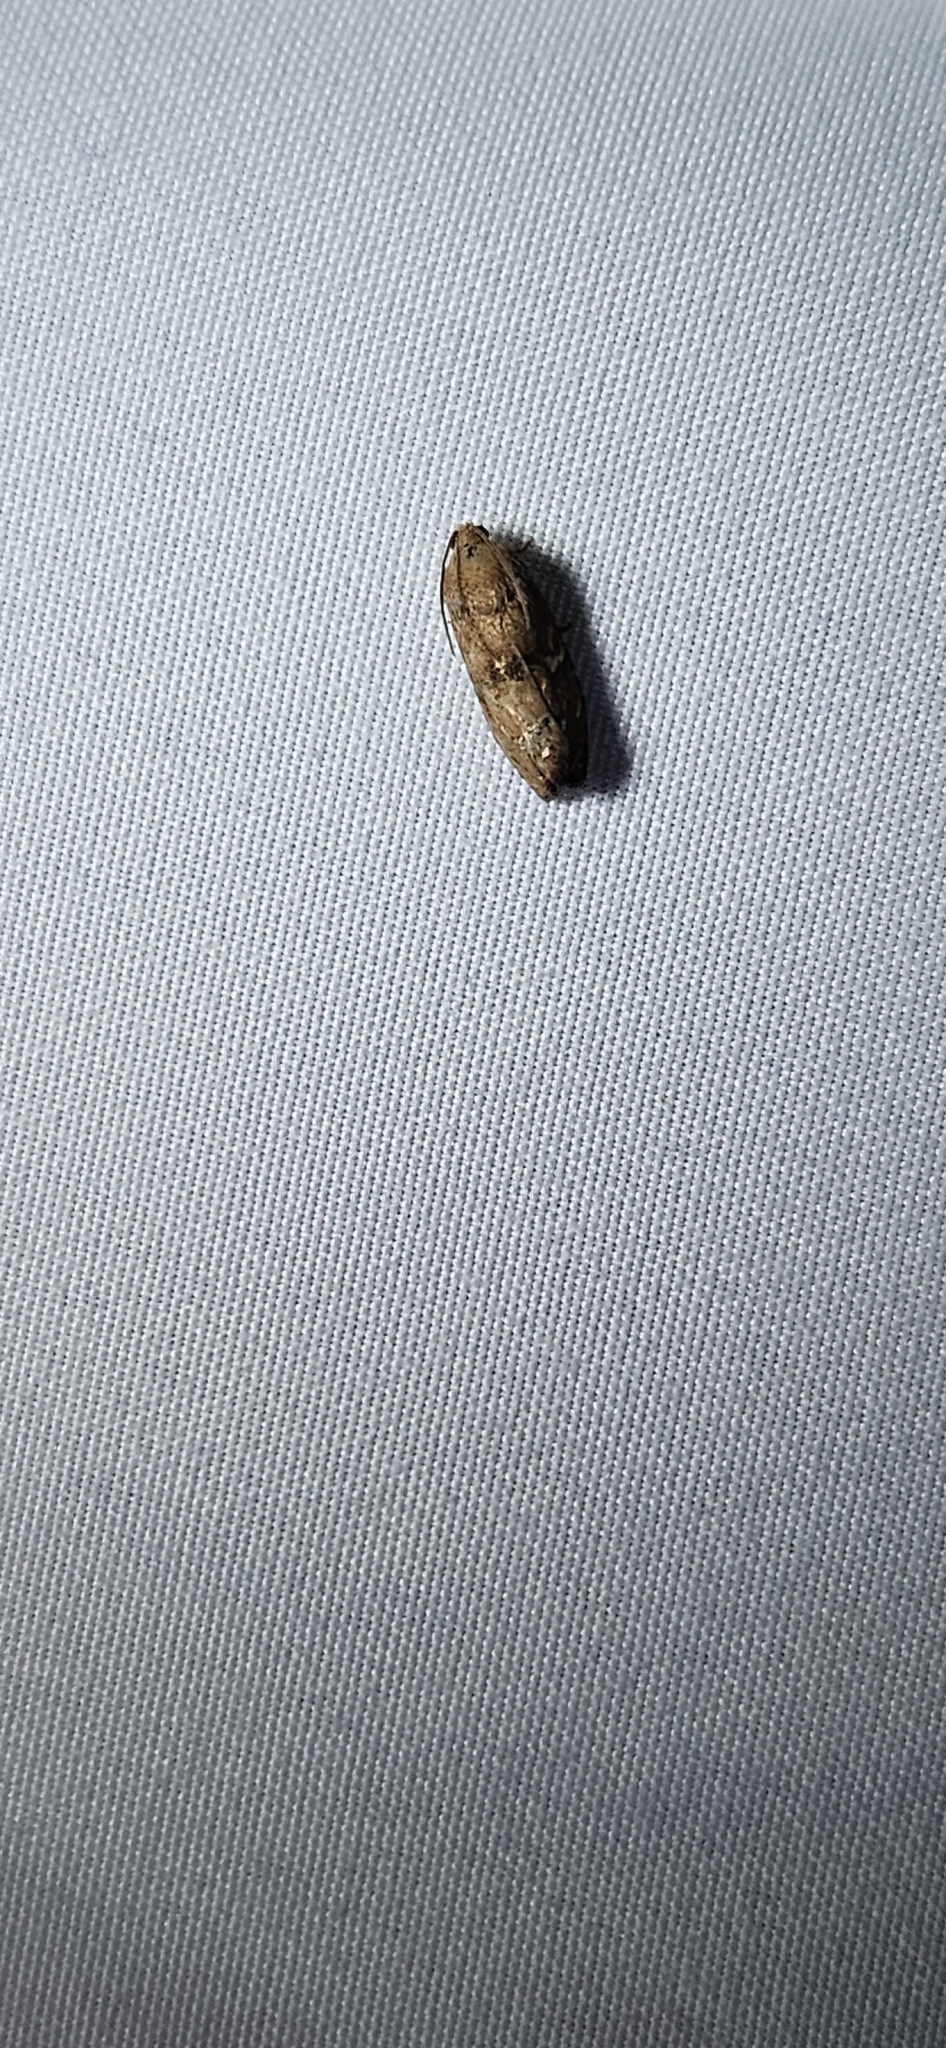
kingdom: Animalia
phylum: Arthropoda
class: Insecta
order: Lepidoptera
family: Tortricidae
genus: Cydia
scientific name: Cydia latiferreana
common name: Filbertworm moth
